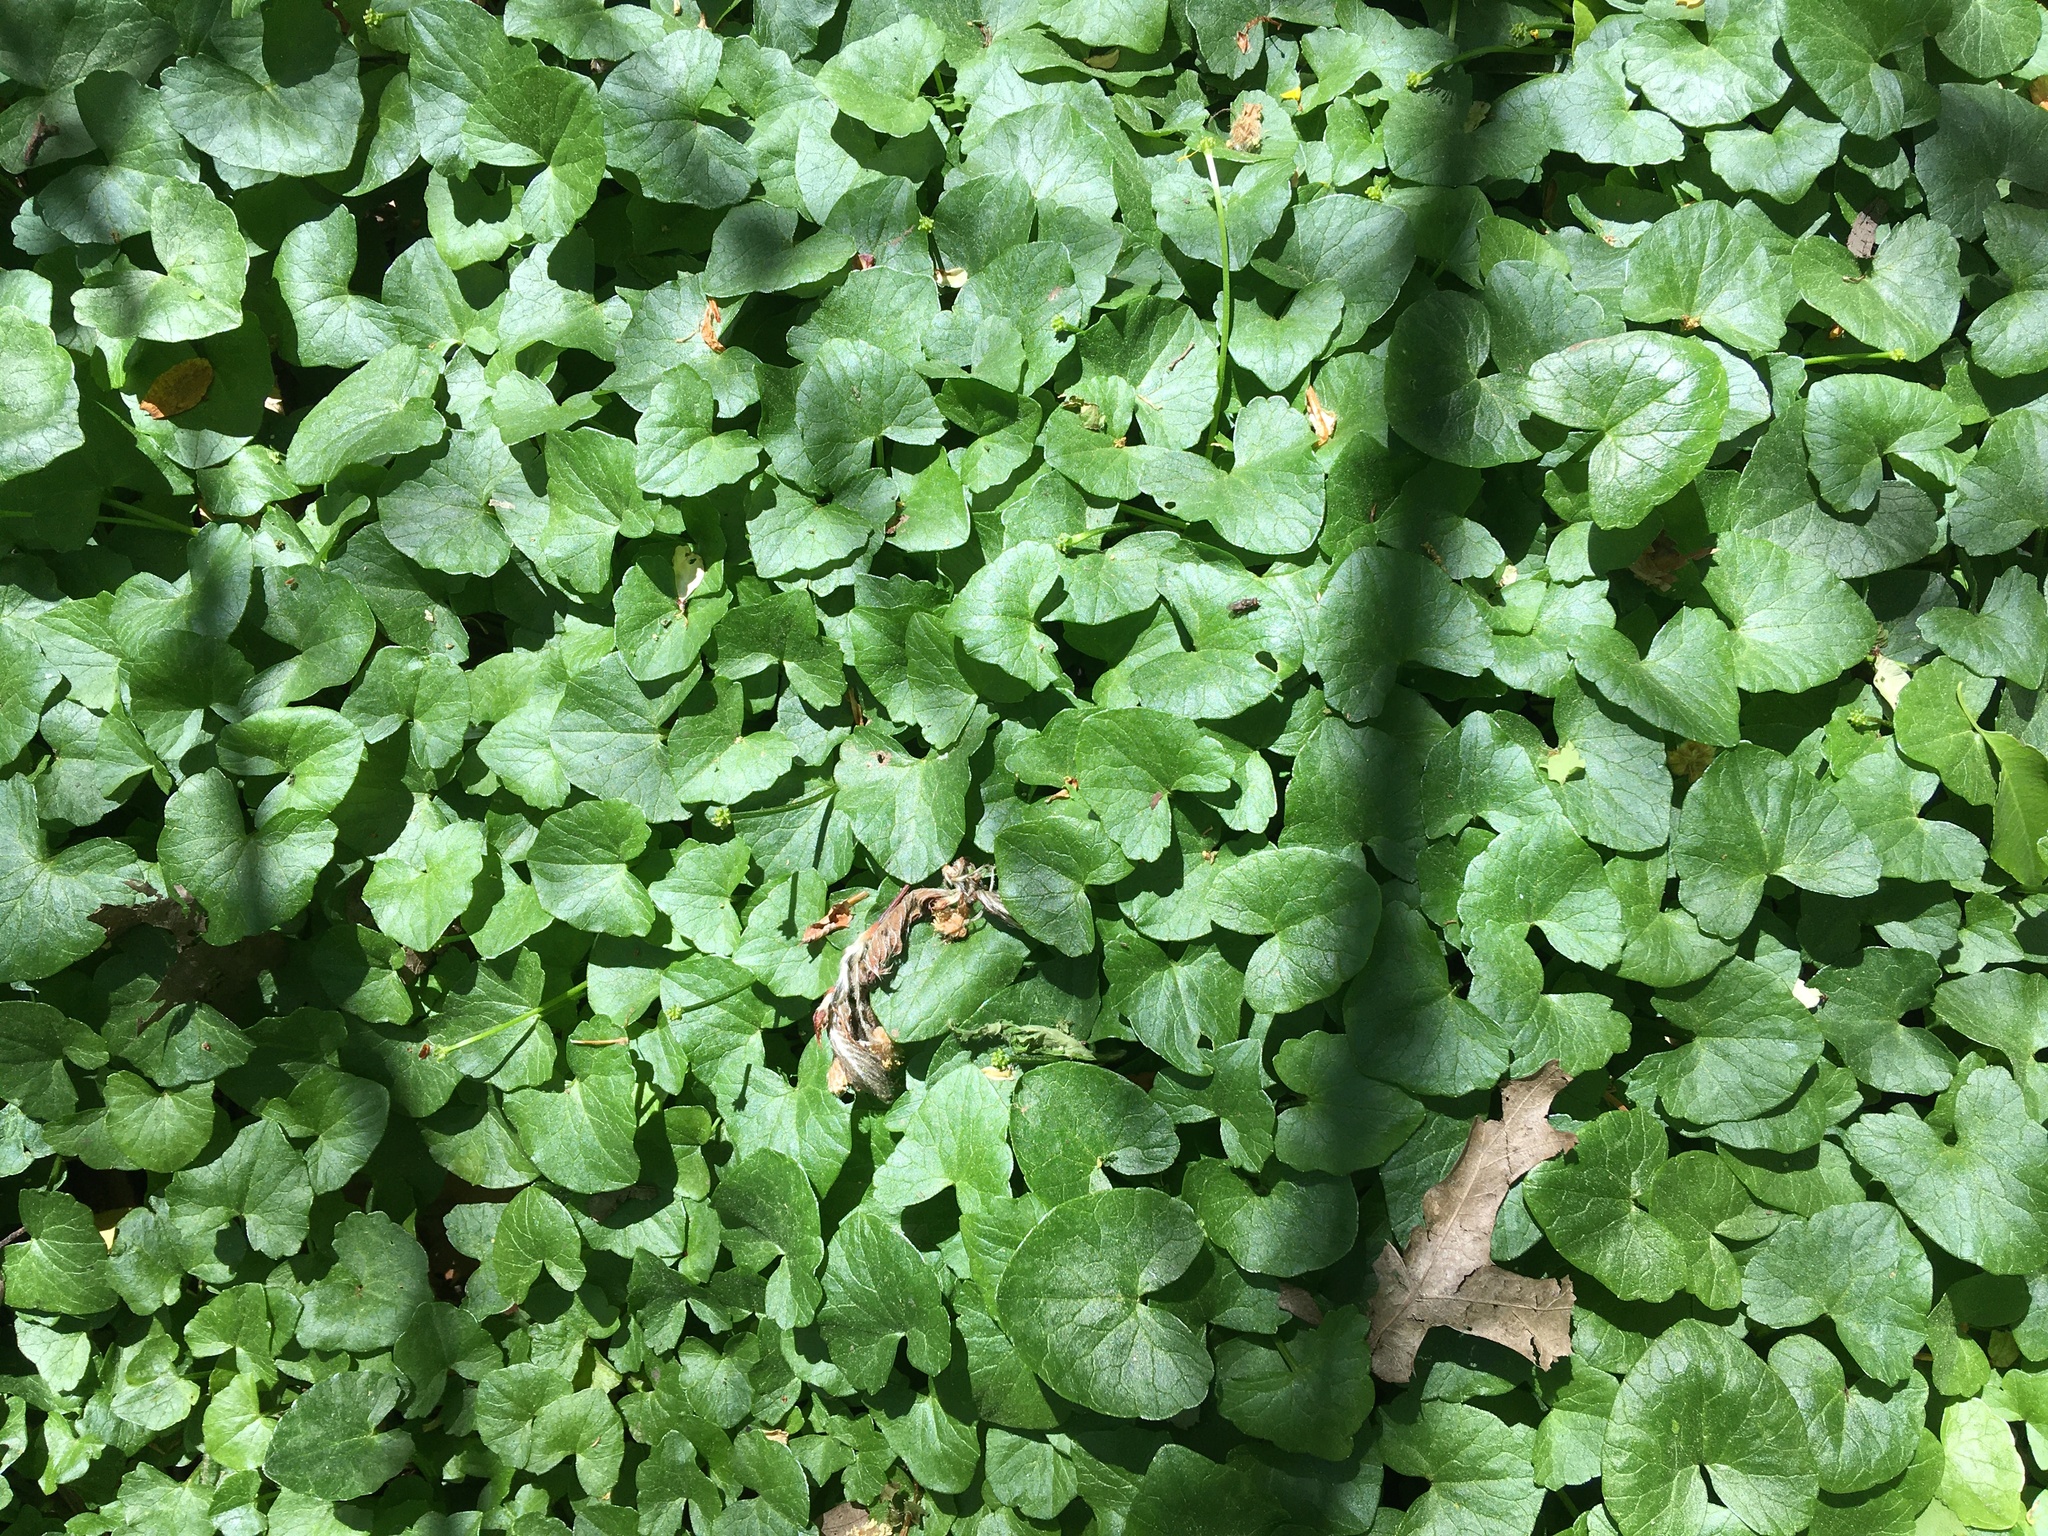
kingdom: Plantae
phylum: Tracheophyta
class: Magnoliopsida
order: Ranunculales
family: Ranunculaceae
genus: Ficaria
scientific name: Ficaria verna
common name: Lesser celandine
